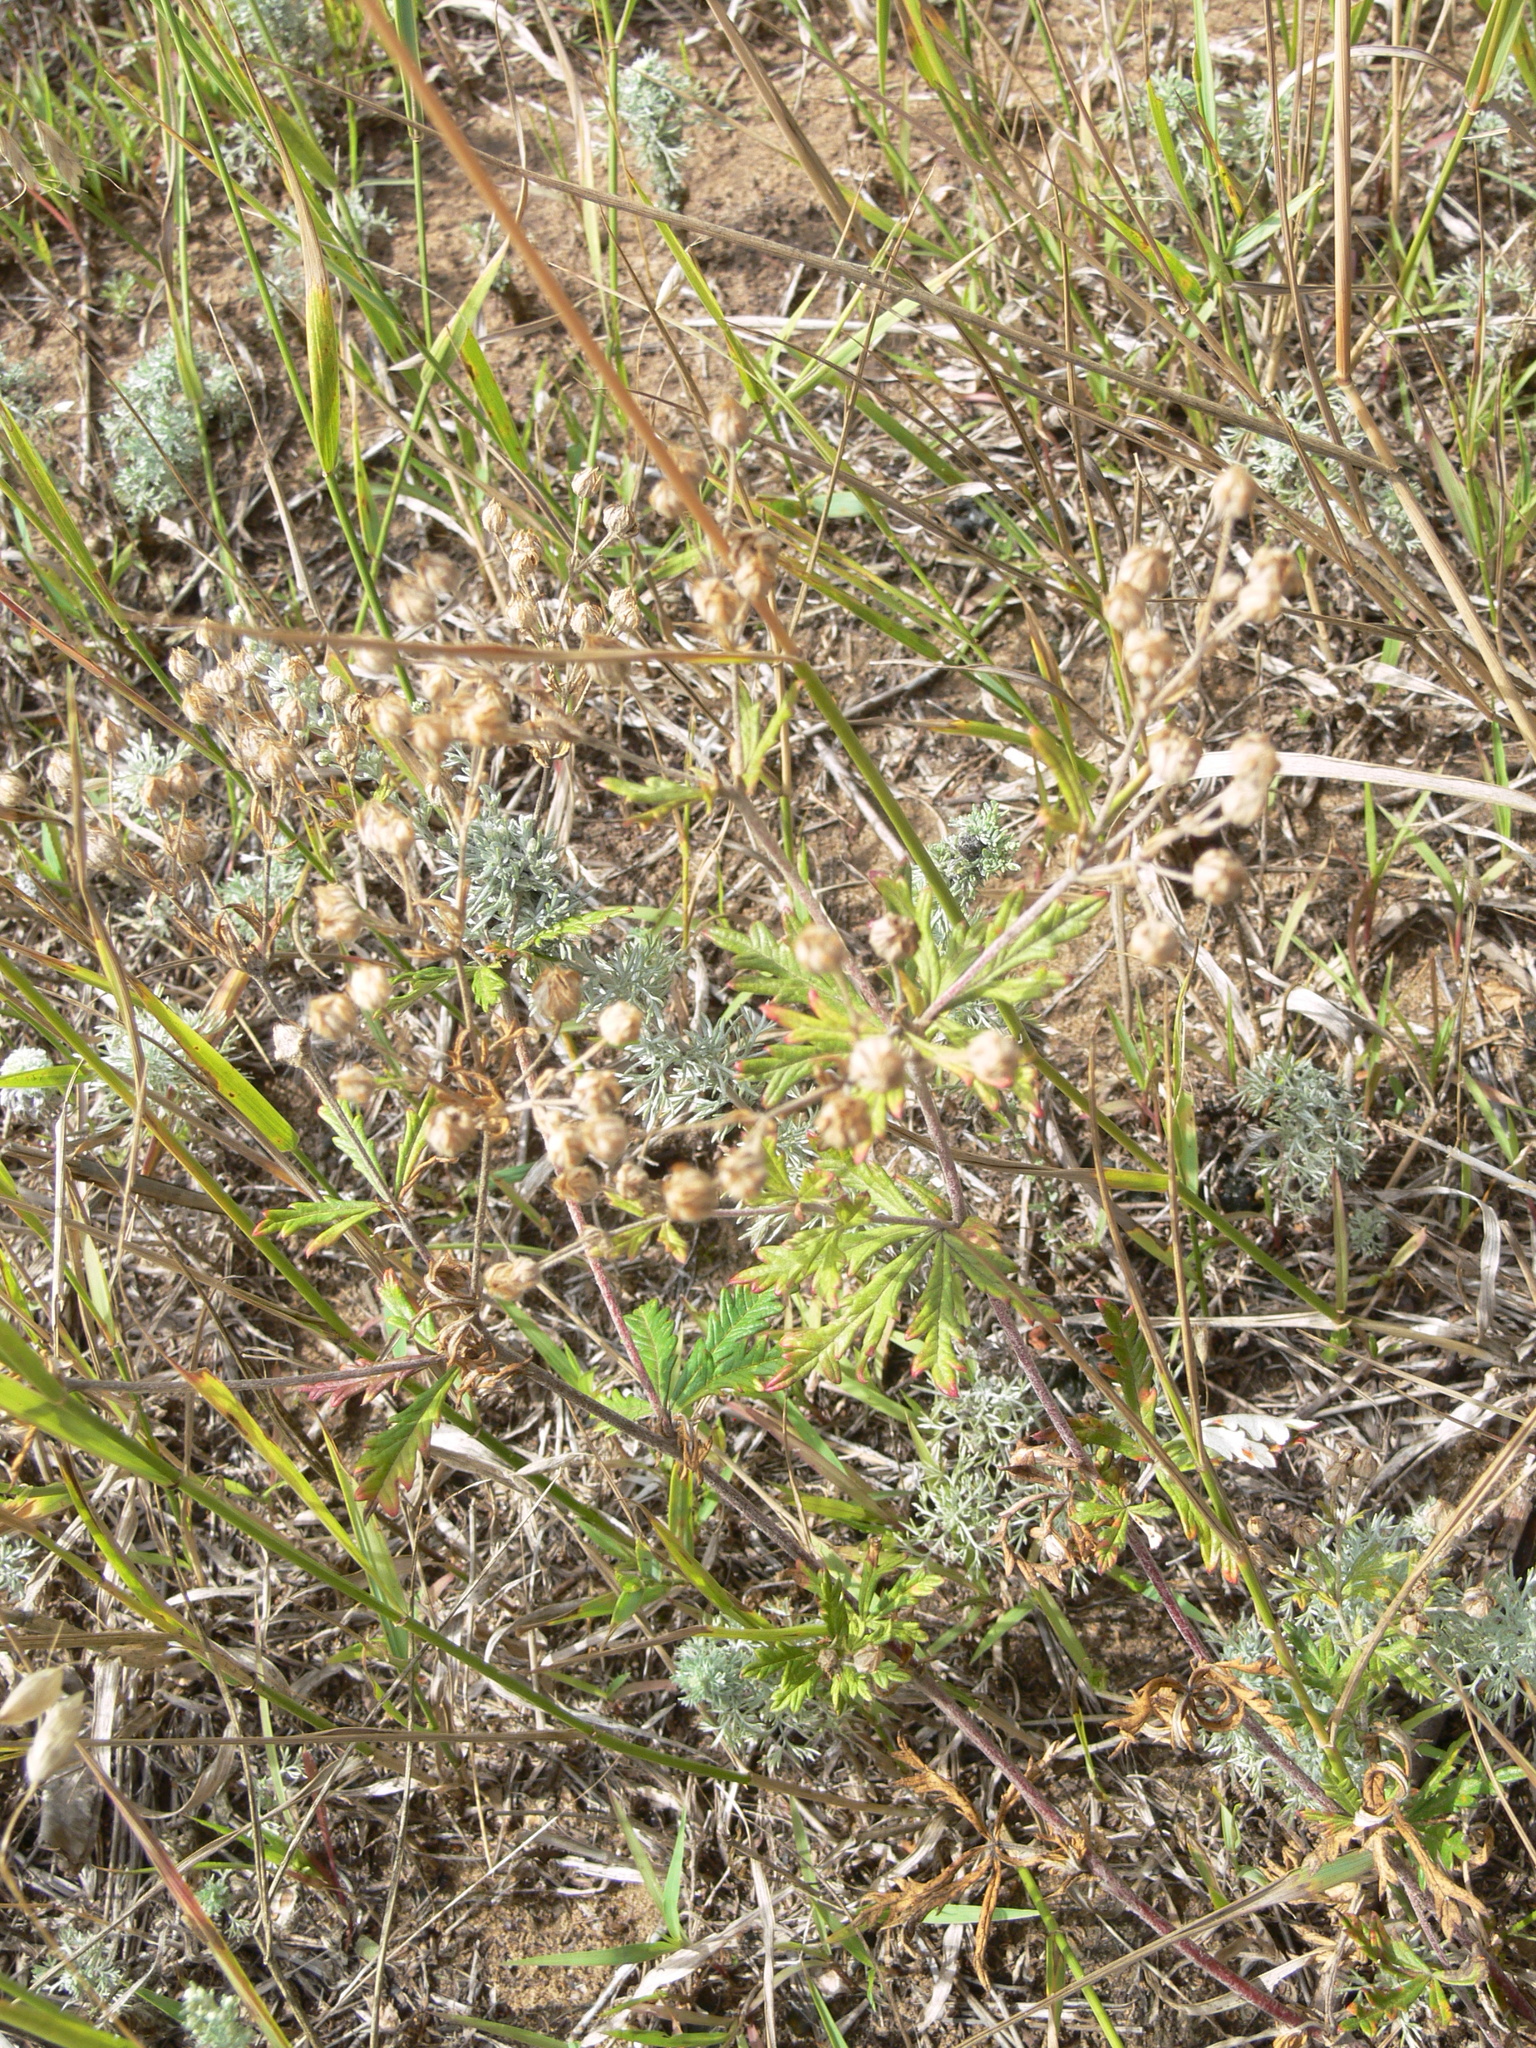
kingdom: Plantae
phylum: Tracheophyta
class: Magnoliopsida
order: Rosales
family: Rosaceae
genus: Potentilla
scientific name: Potentilla argentea
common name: Hoary cinquefoil
